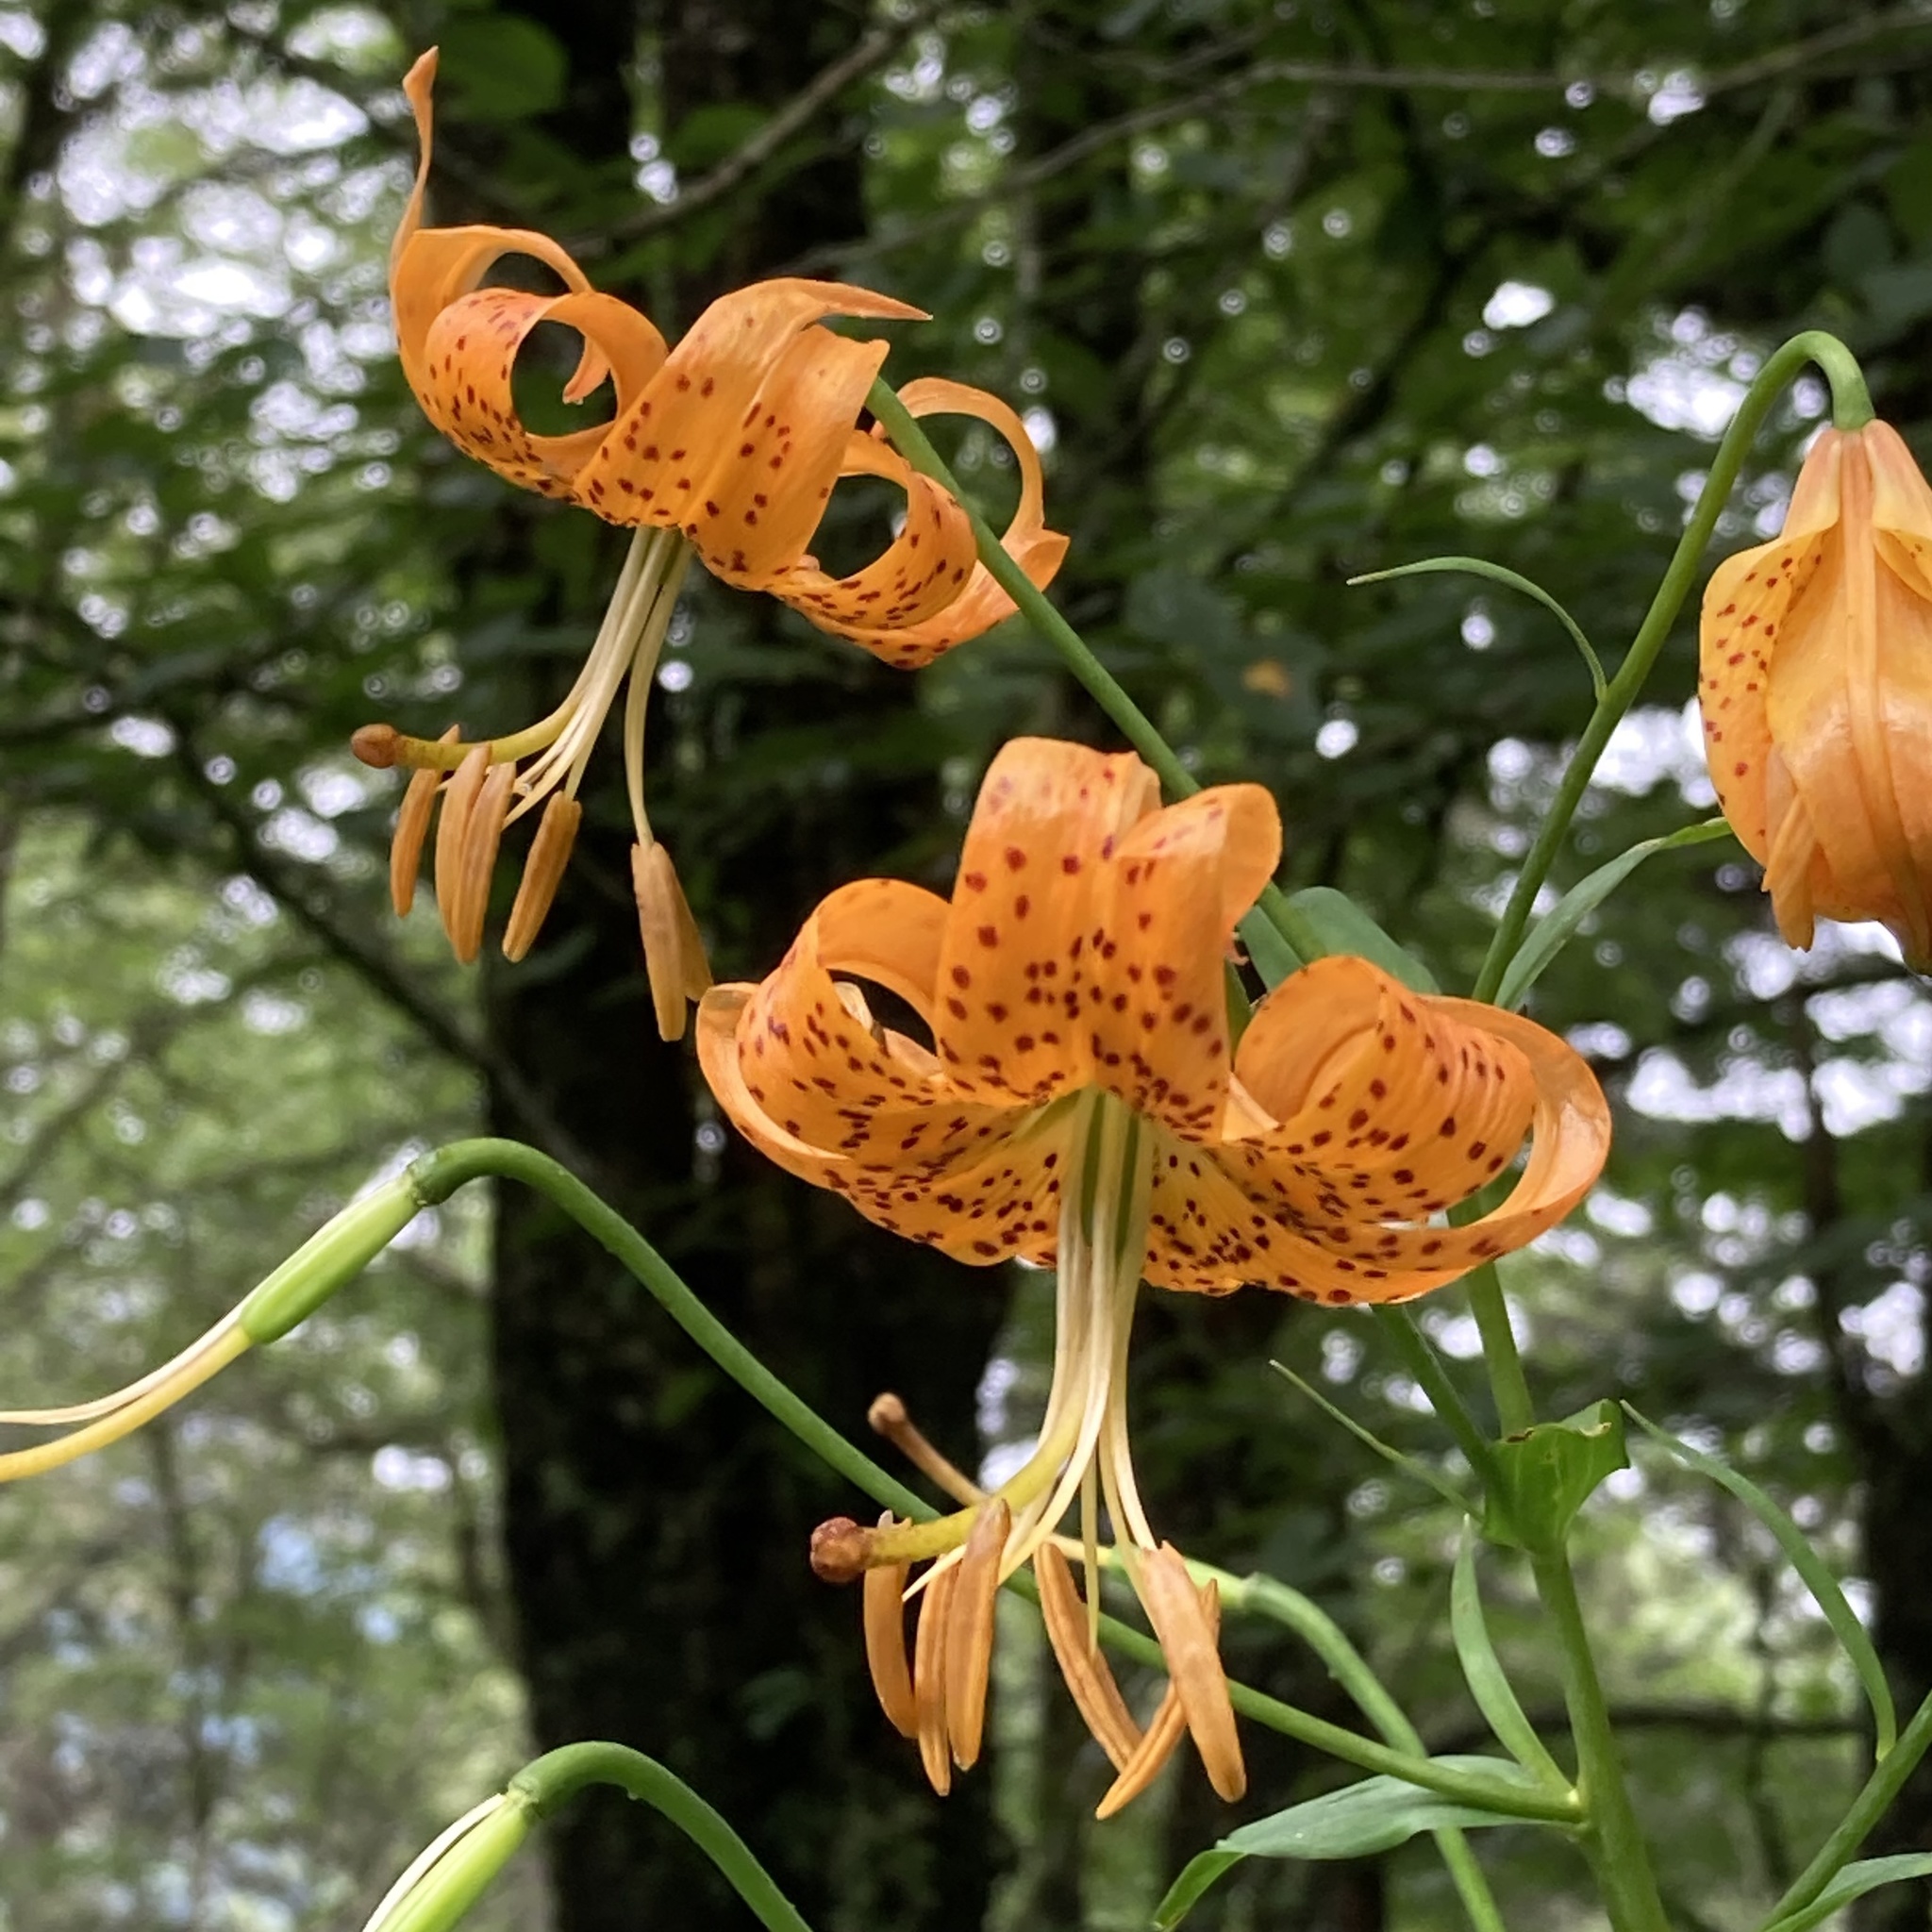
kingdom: Plantae
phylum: Tracheophyta
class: Liliopsida
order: Liliales
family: Liliaceae
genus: Lilium
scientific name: Lilium superbum
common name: American turk's-cap lily
